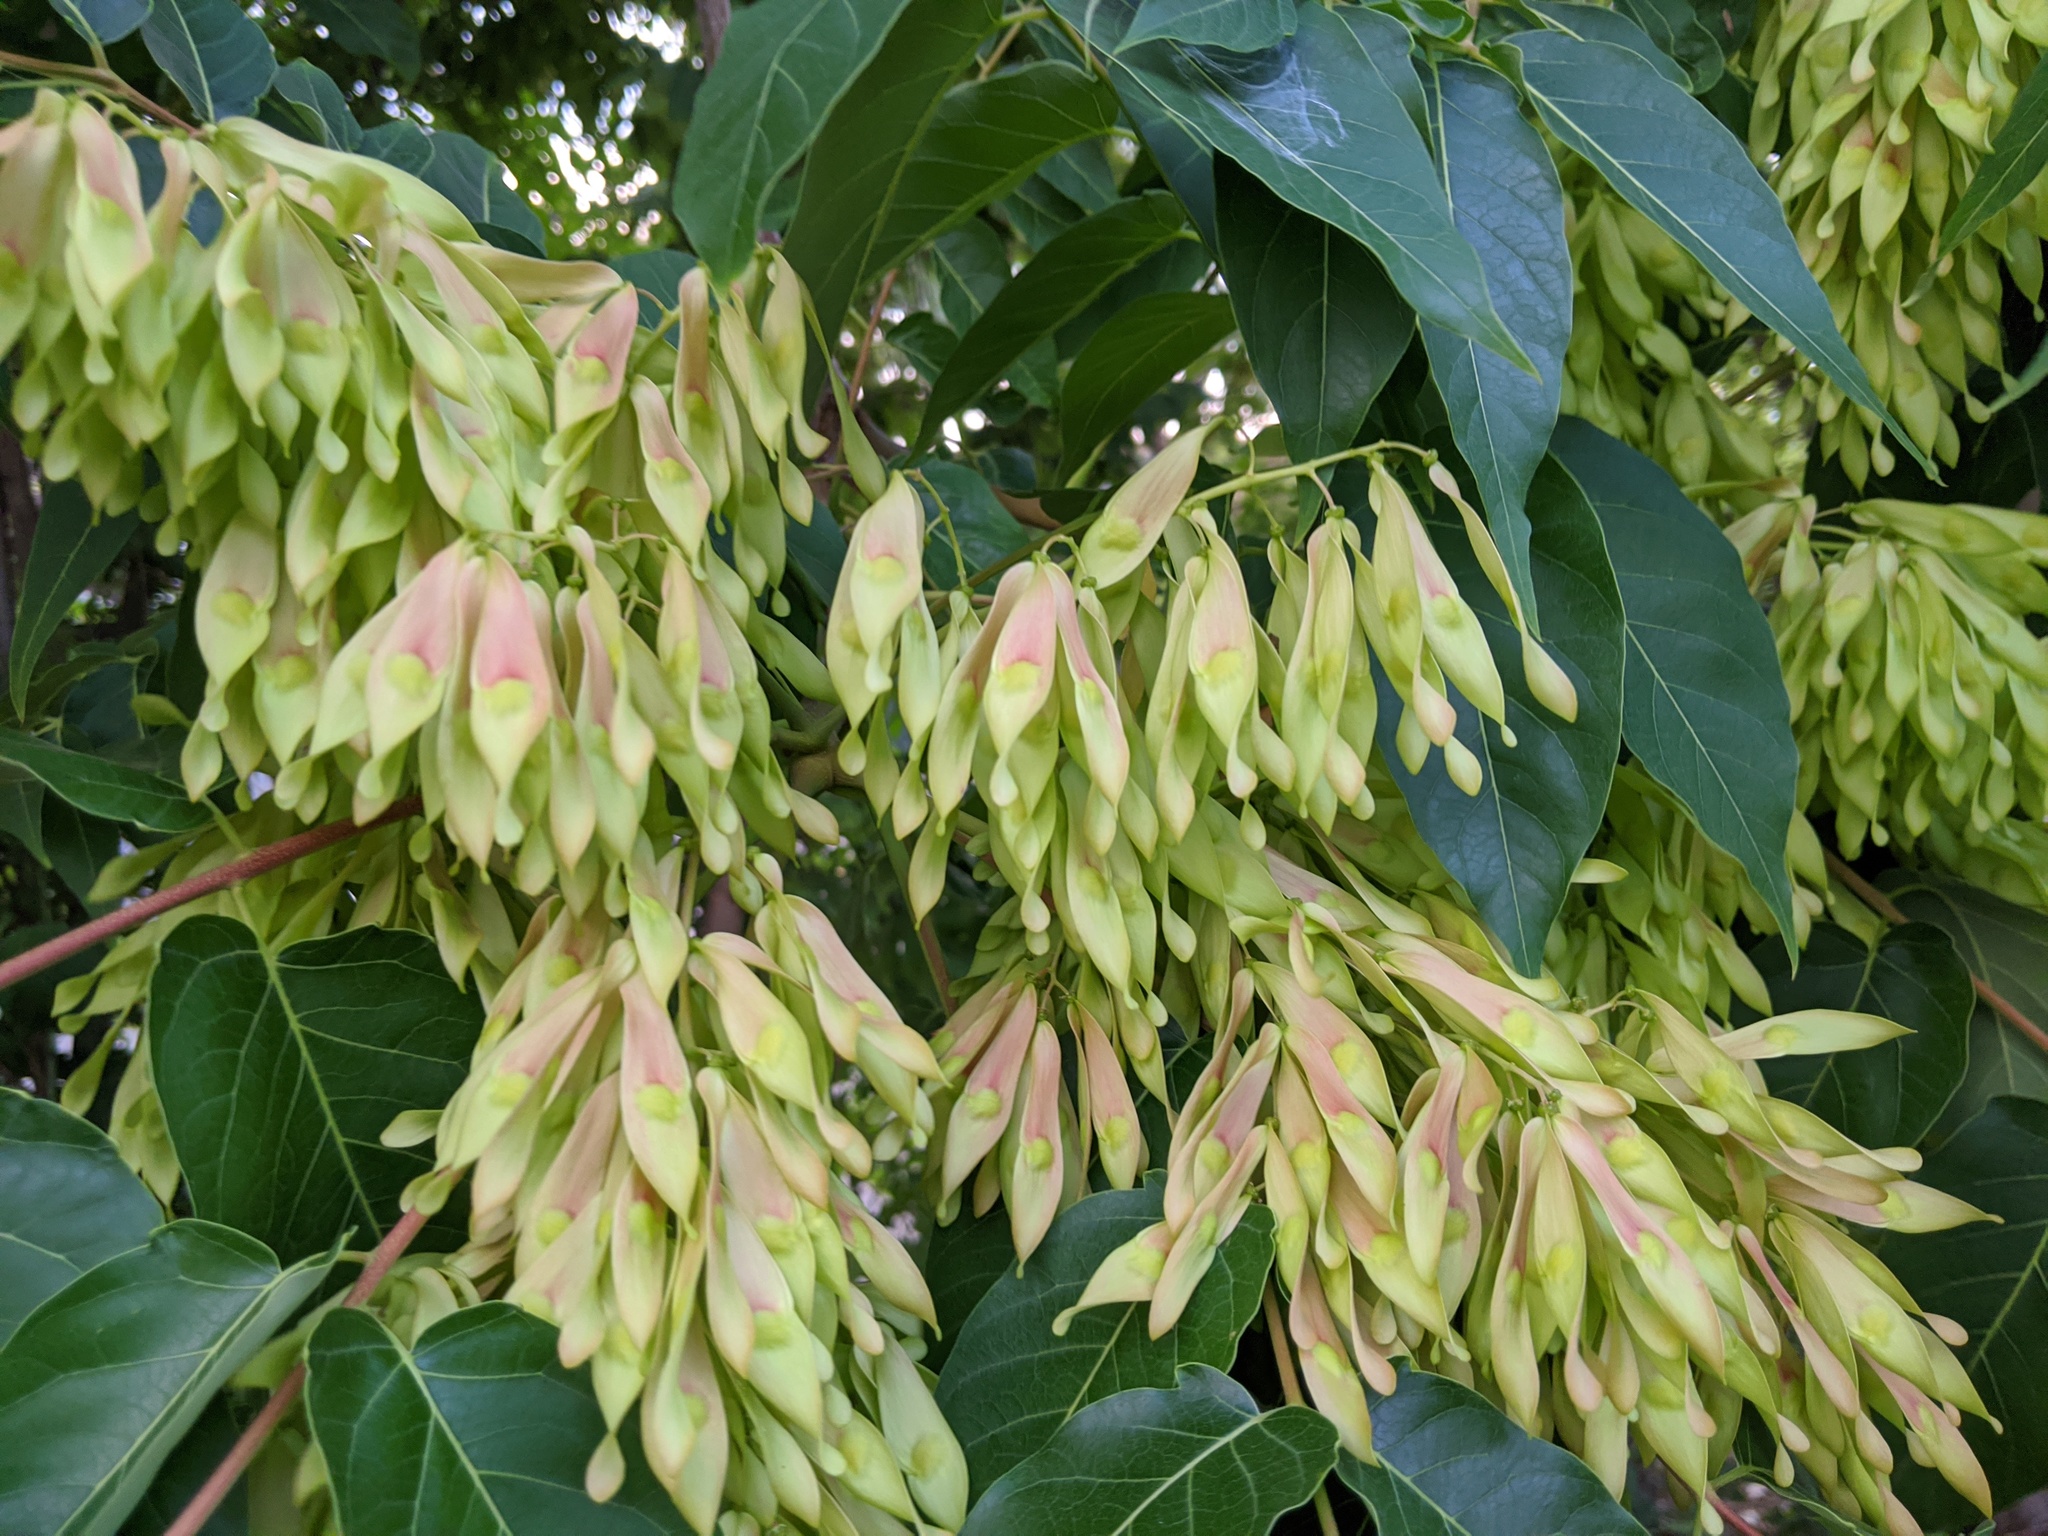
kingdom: Plantae
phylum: Tracheophyta
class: Magnoliopsida
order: Sapindales
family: Simaroubaceae
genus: Ailanthus
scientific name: Ailanthus altissima
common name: Tree-of-heaven
